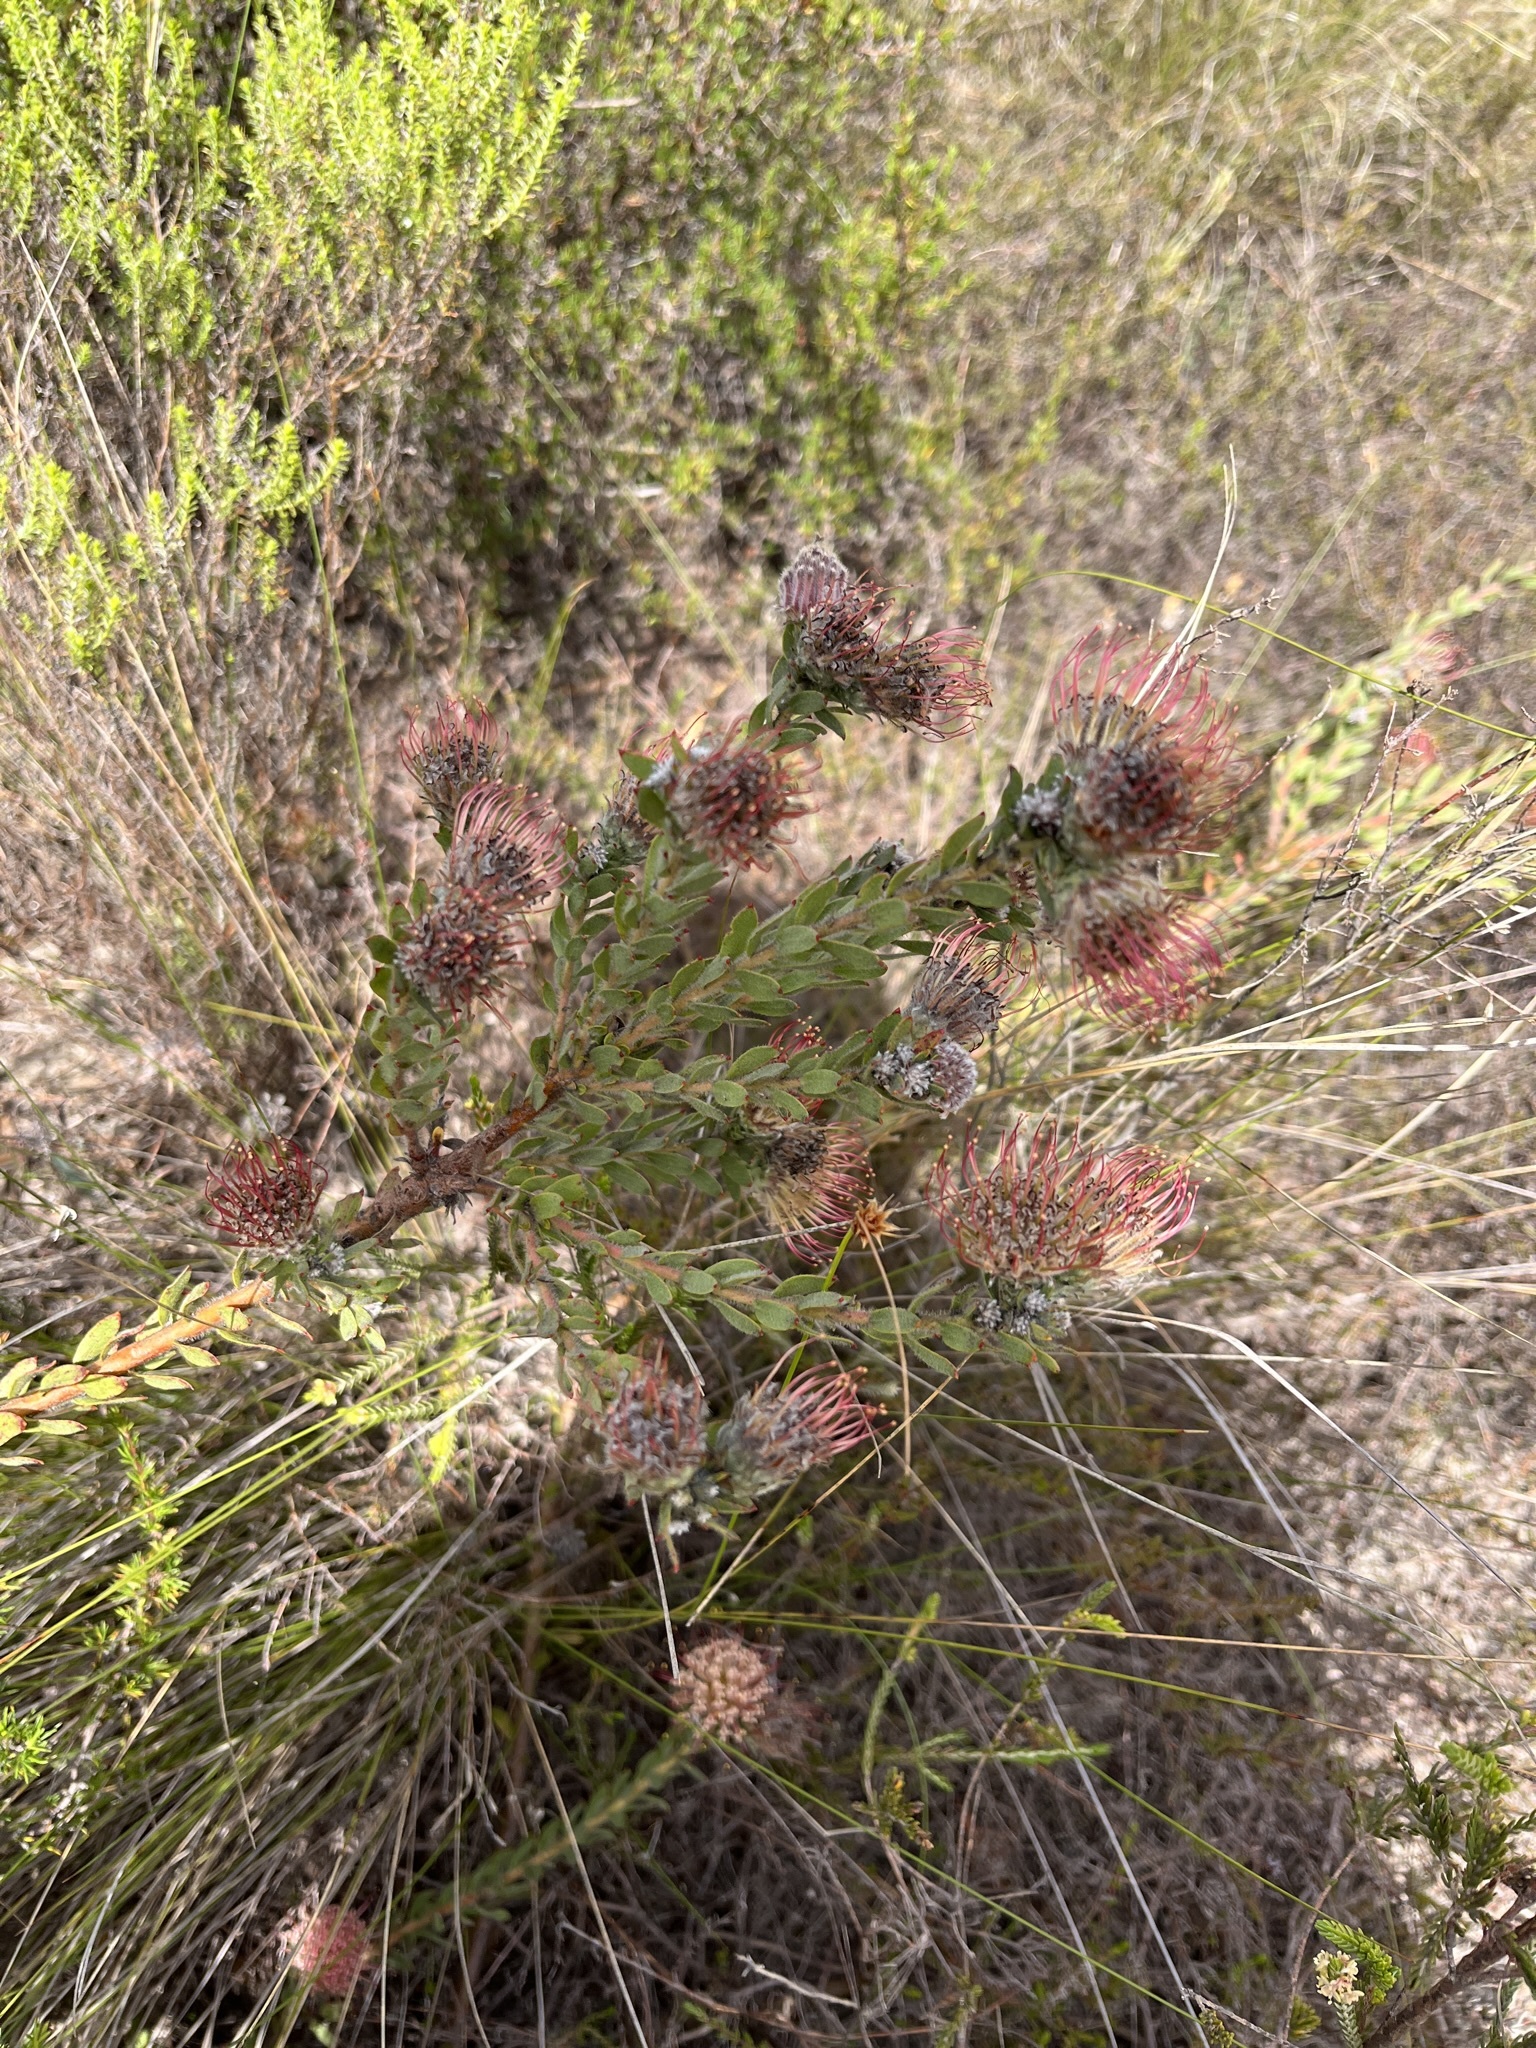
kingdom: Plantae
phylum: Tracheophyta
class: Magnoliopsida
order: Proteales
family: Proteaceae
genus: Leucospermum
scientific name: Leucospermum calligerum
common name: Arid pincushion
